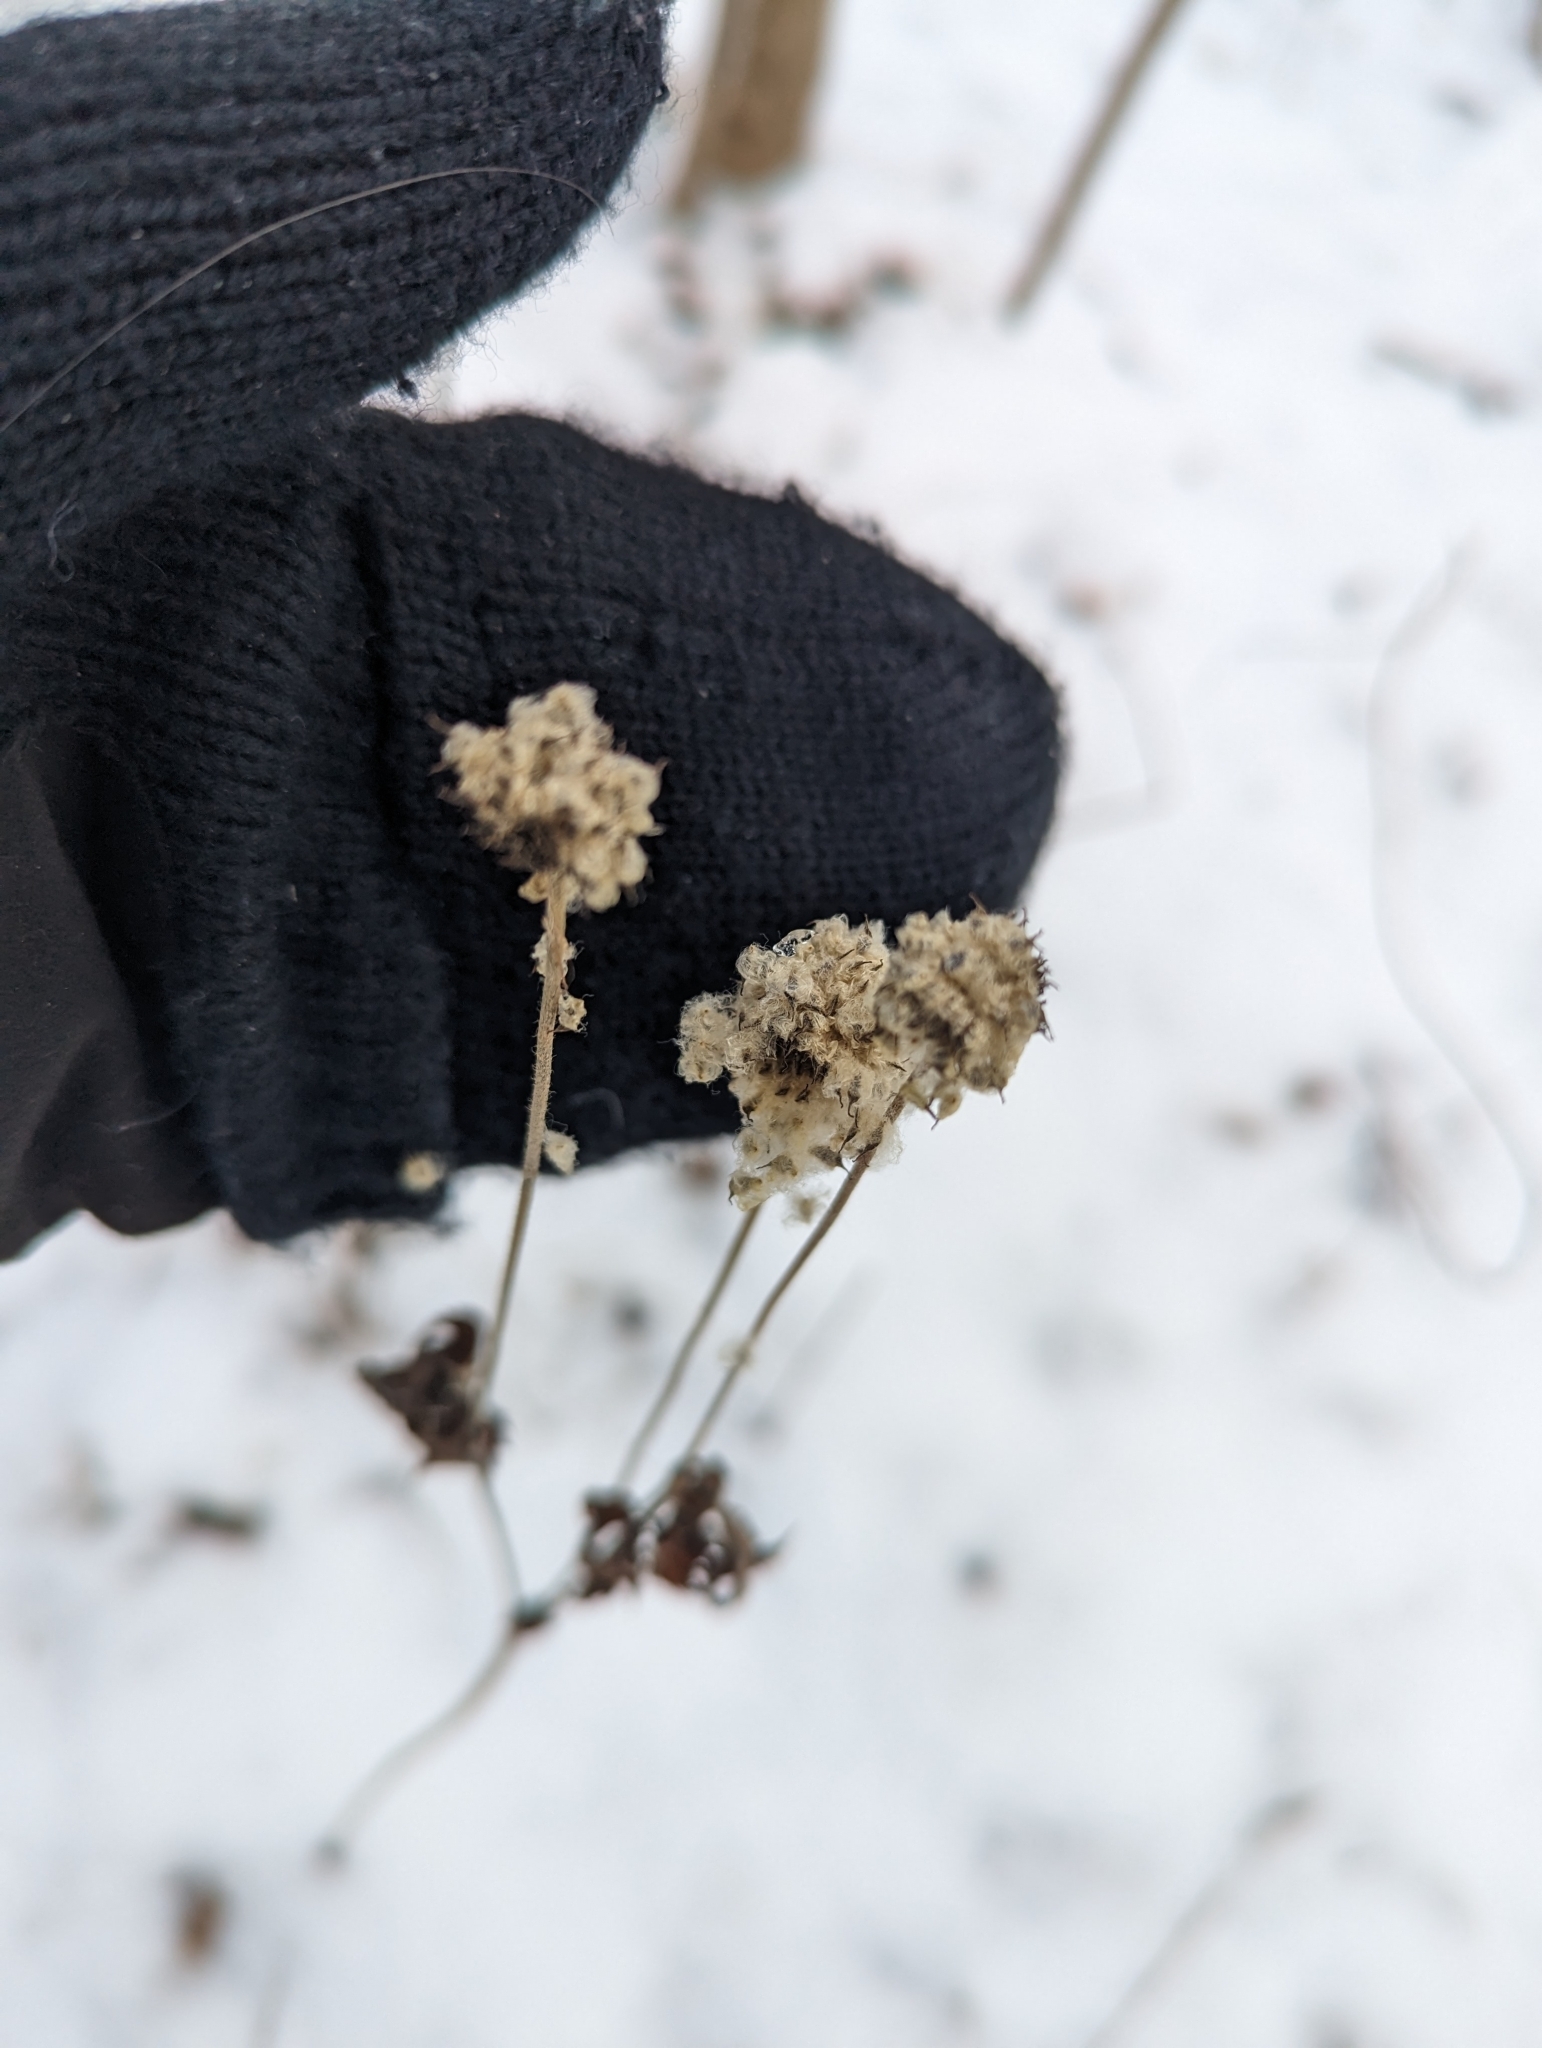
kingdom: Plantae
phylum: Tracheophyta
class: Magnoliopsida
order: Ranunculales
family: Ranunculaceae
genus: Anemone
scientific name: Anemone virginiana
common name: Tall anemone
